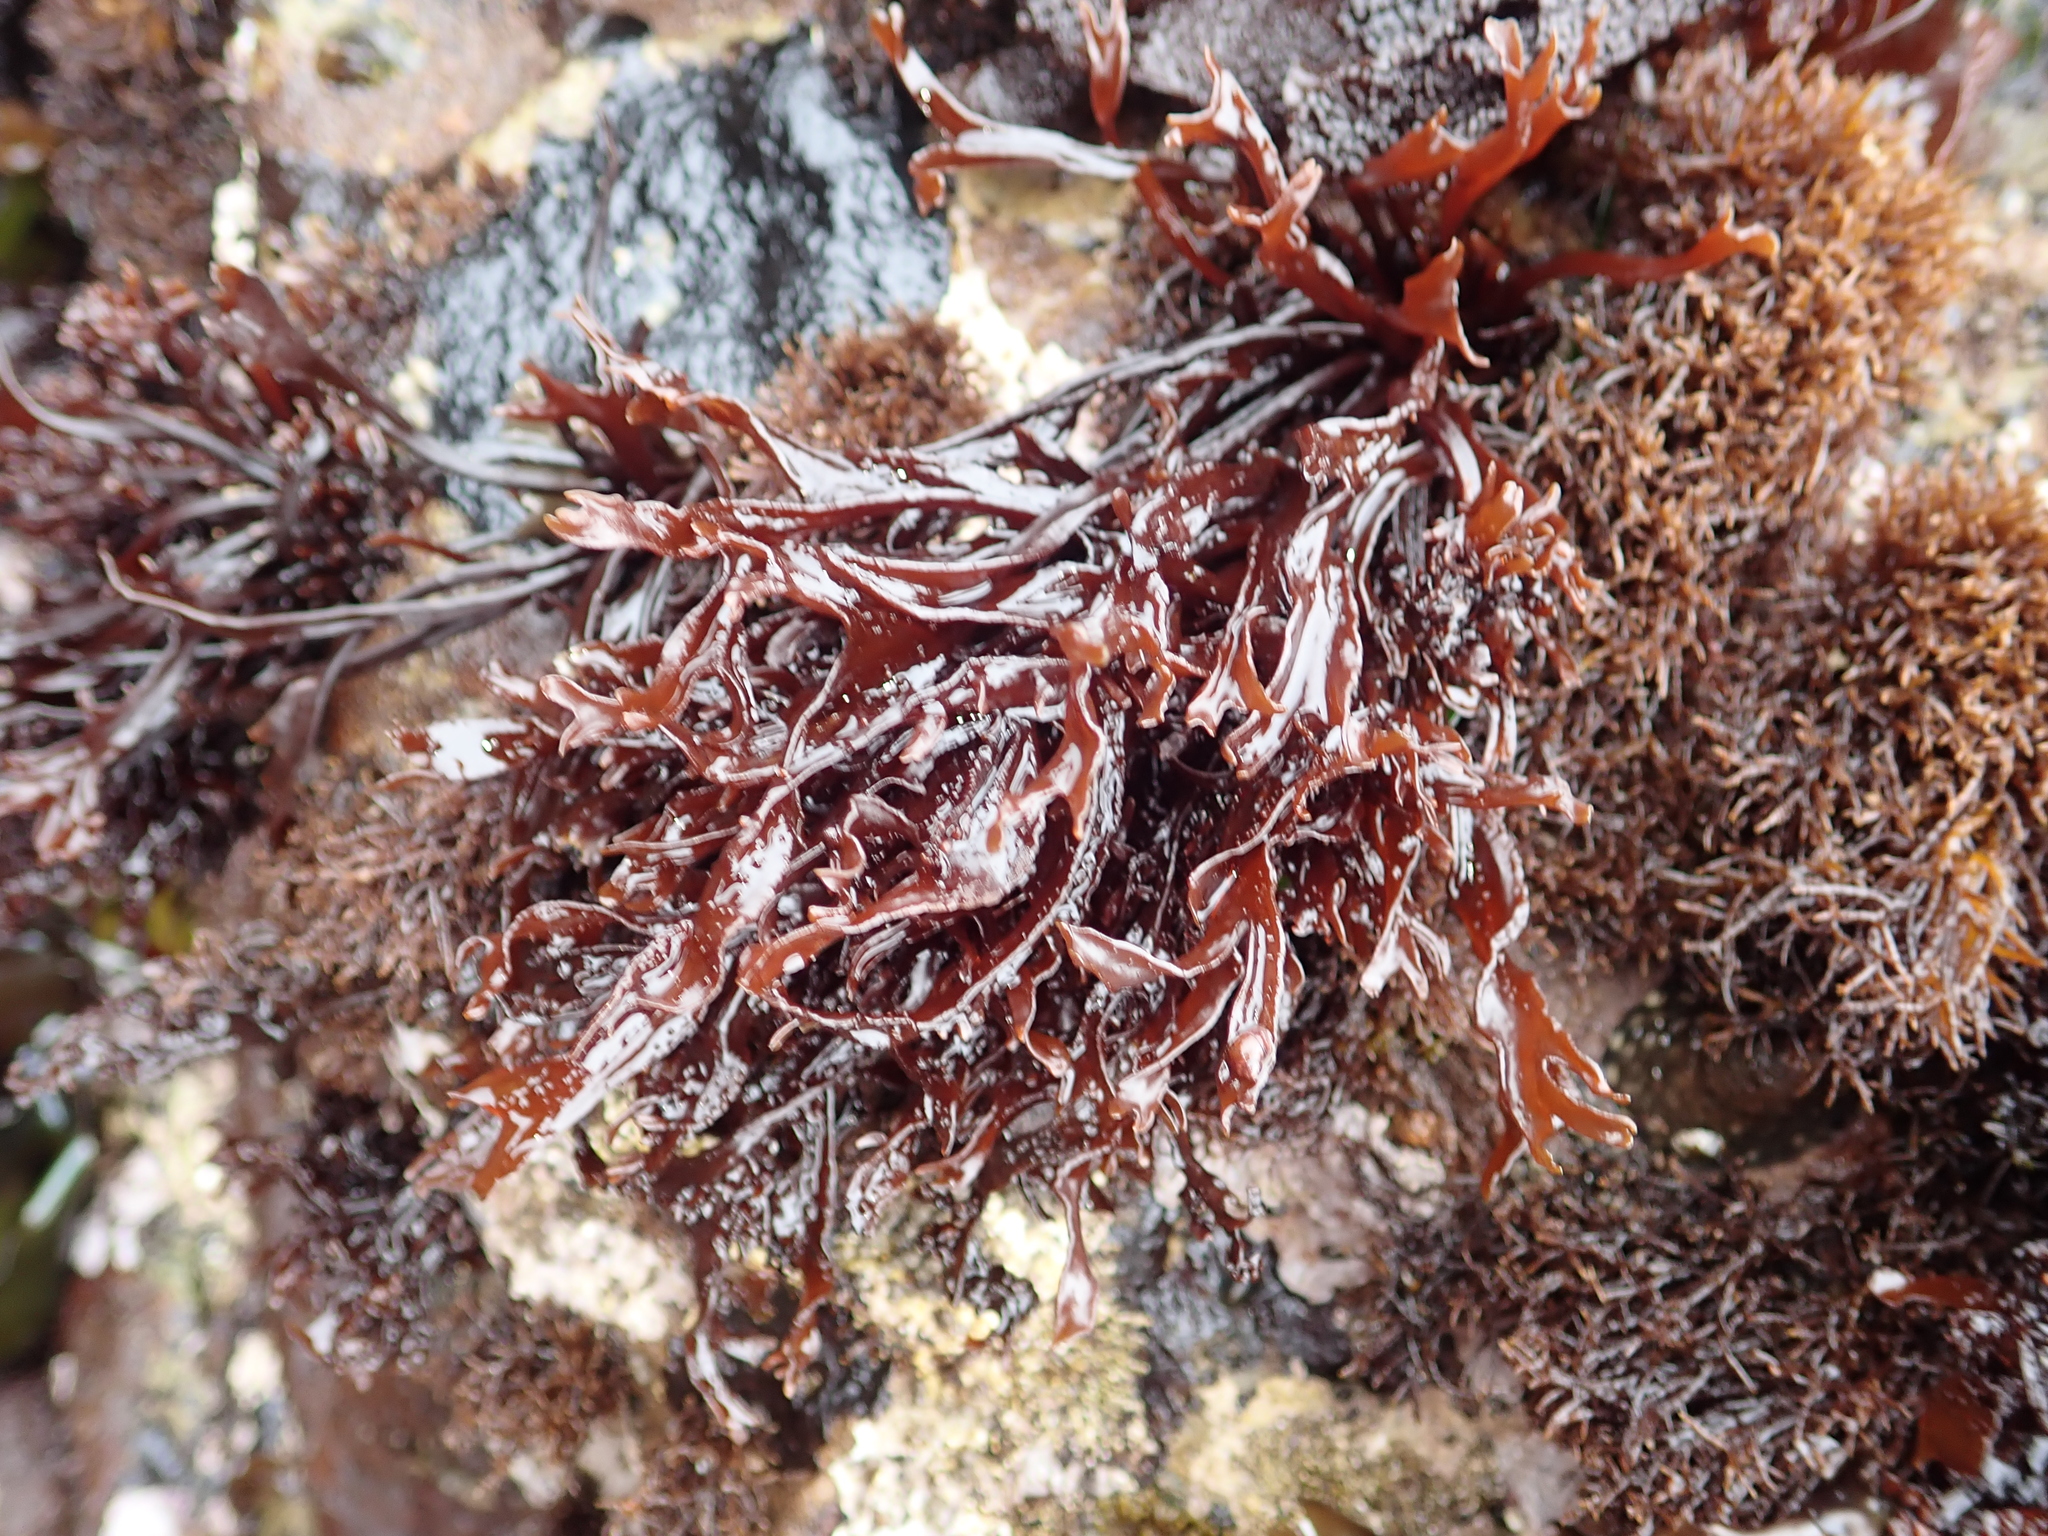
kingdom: Plantae
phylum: Rhodophyta
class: Florideophyceae
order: Gigartinales
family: Phyllophoraceae
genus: Mastocarpus
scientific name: Mastocarpus jardinii
